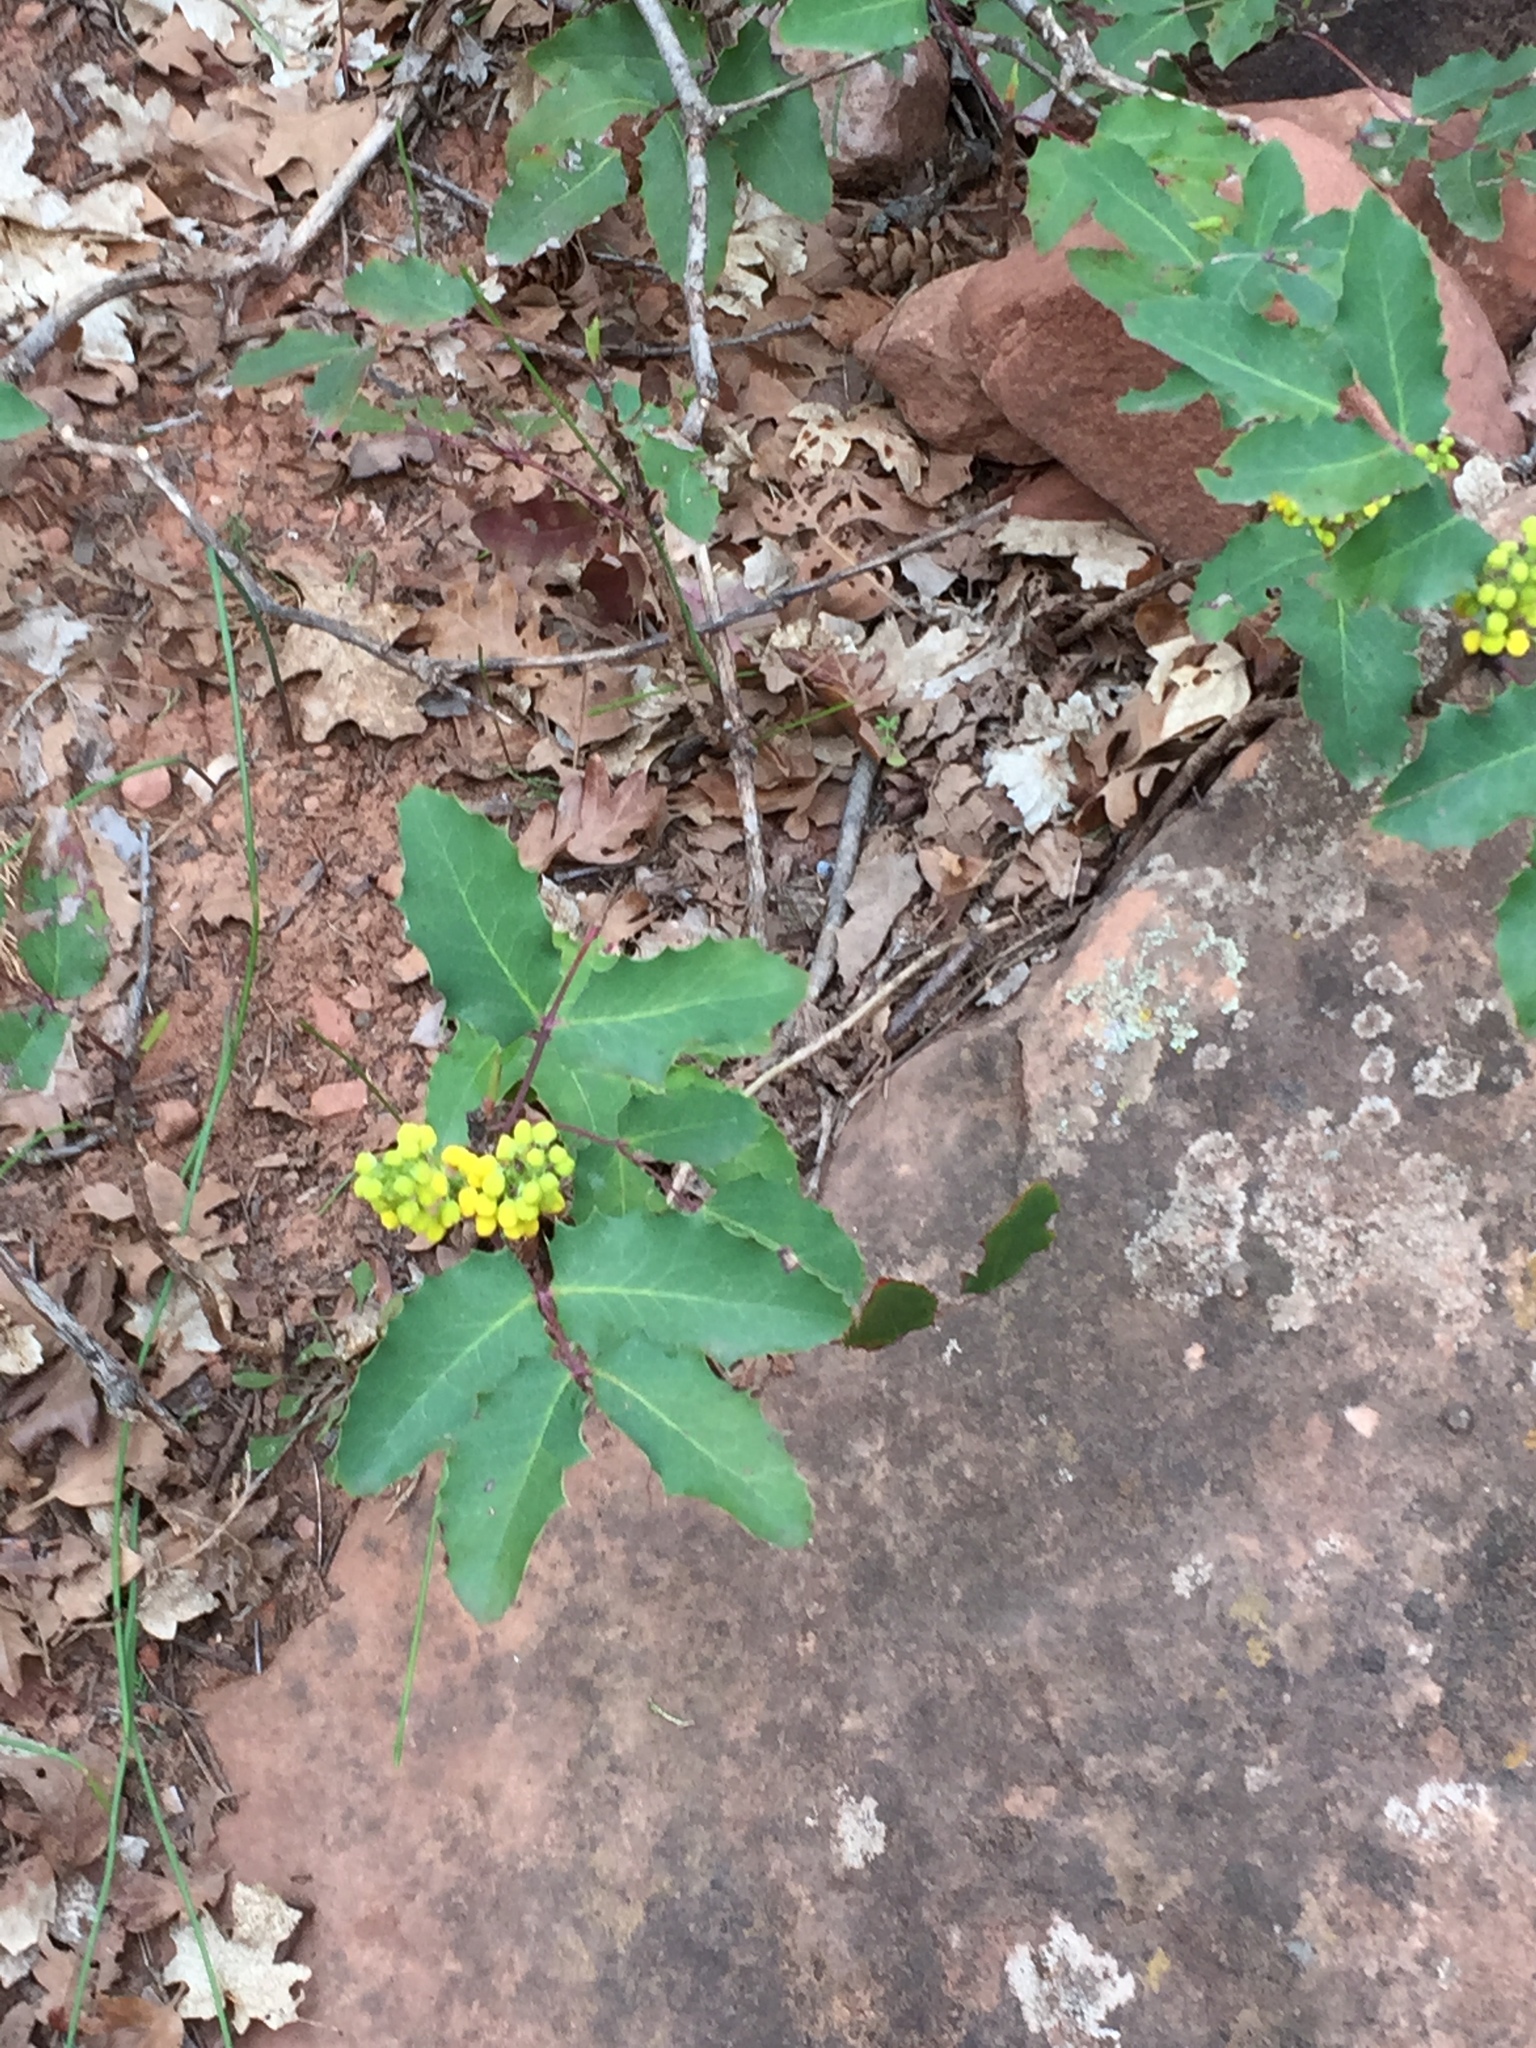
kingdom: Plantae
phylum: Tracheophyta
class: Magnoliopsida
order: Ranunculales
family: Berberidaceae
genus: Mahonia
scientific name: Mahonia repens
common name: Creeping oregon-grape
